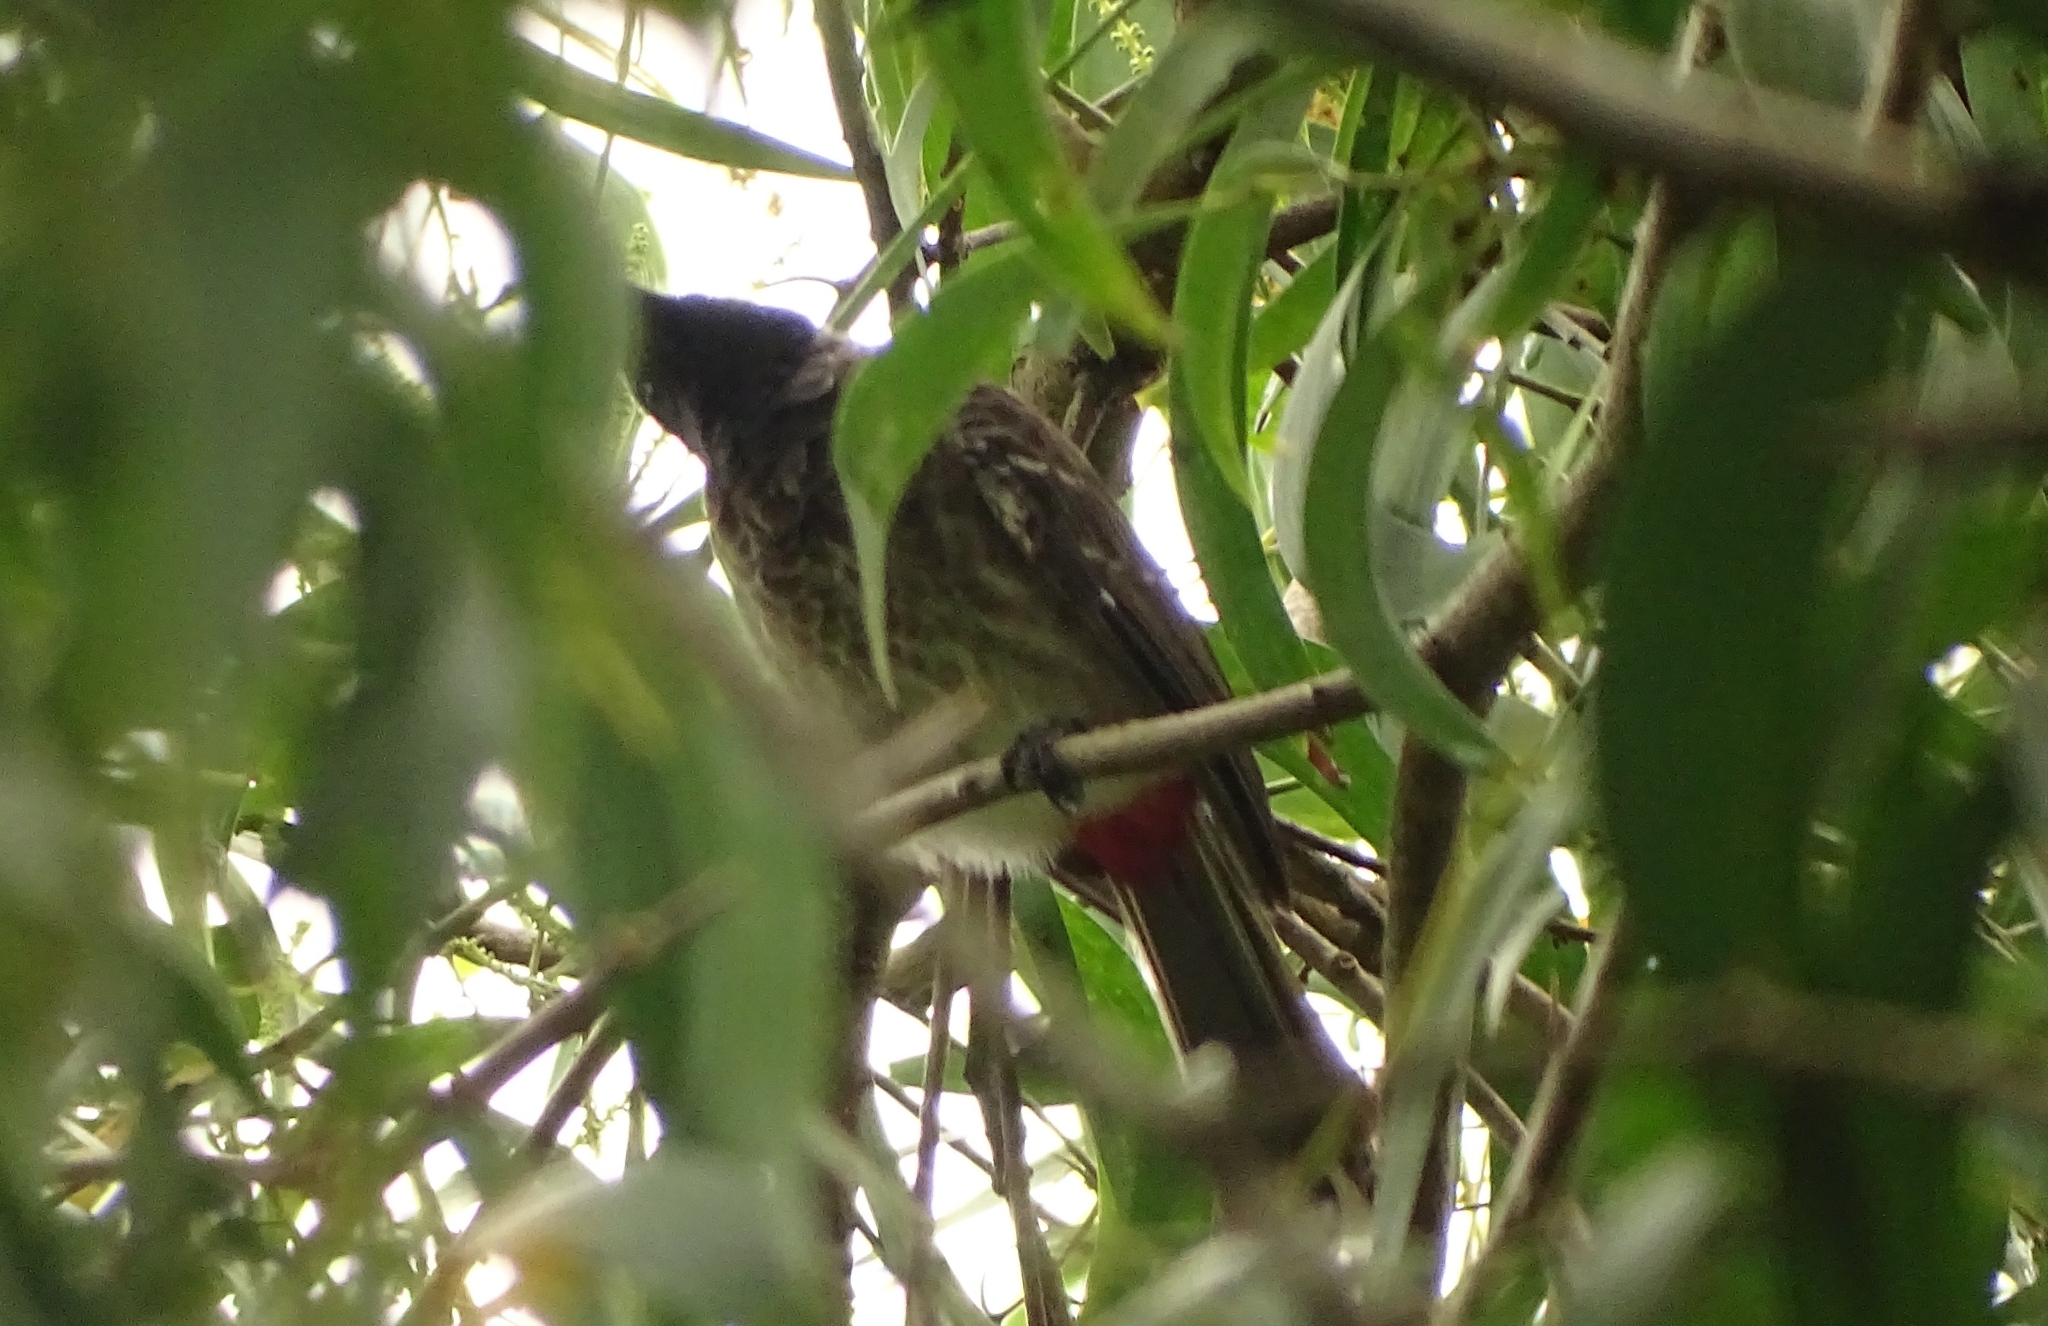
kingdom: Animalia
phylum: Chordata
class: Aves
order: Passeriformes
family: Pycnonotidae
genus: Pycnonotus
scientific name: Pycnonotus cafer
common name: Red-vented bulbul
